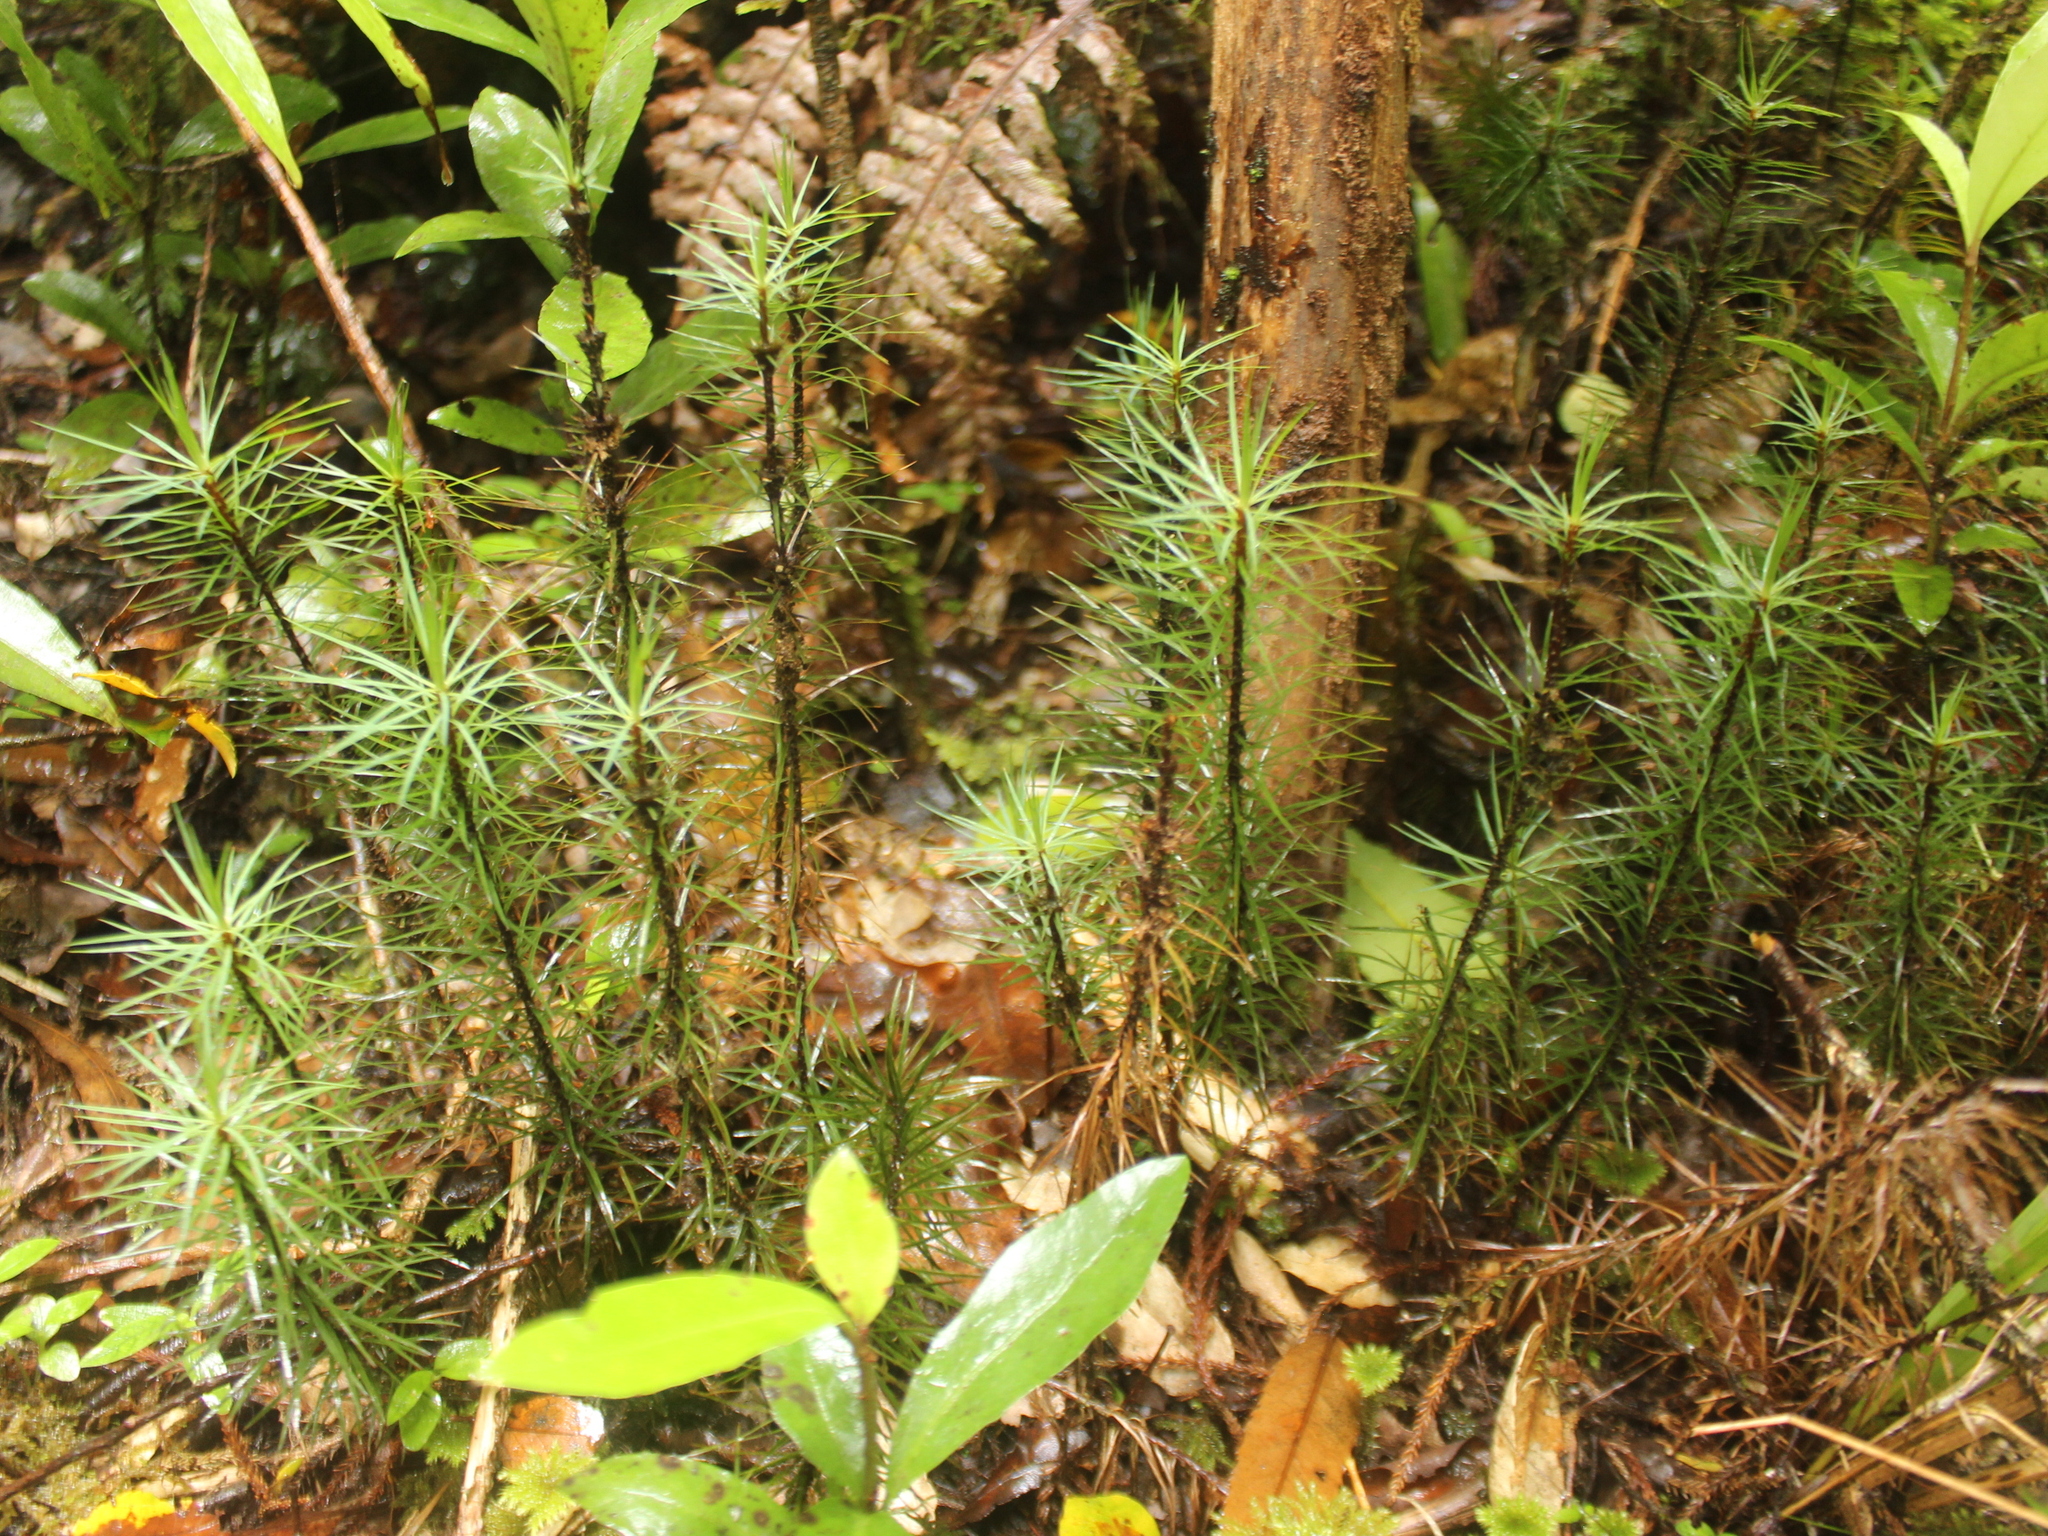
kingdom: Plantae
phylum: Bryophyta
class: Polytrichopsida
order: Polytrichales
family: Polytrichaceae
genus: Dawsonia
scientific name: Dawsonia superba
